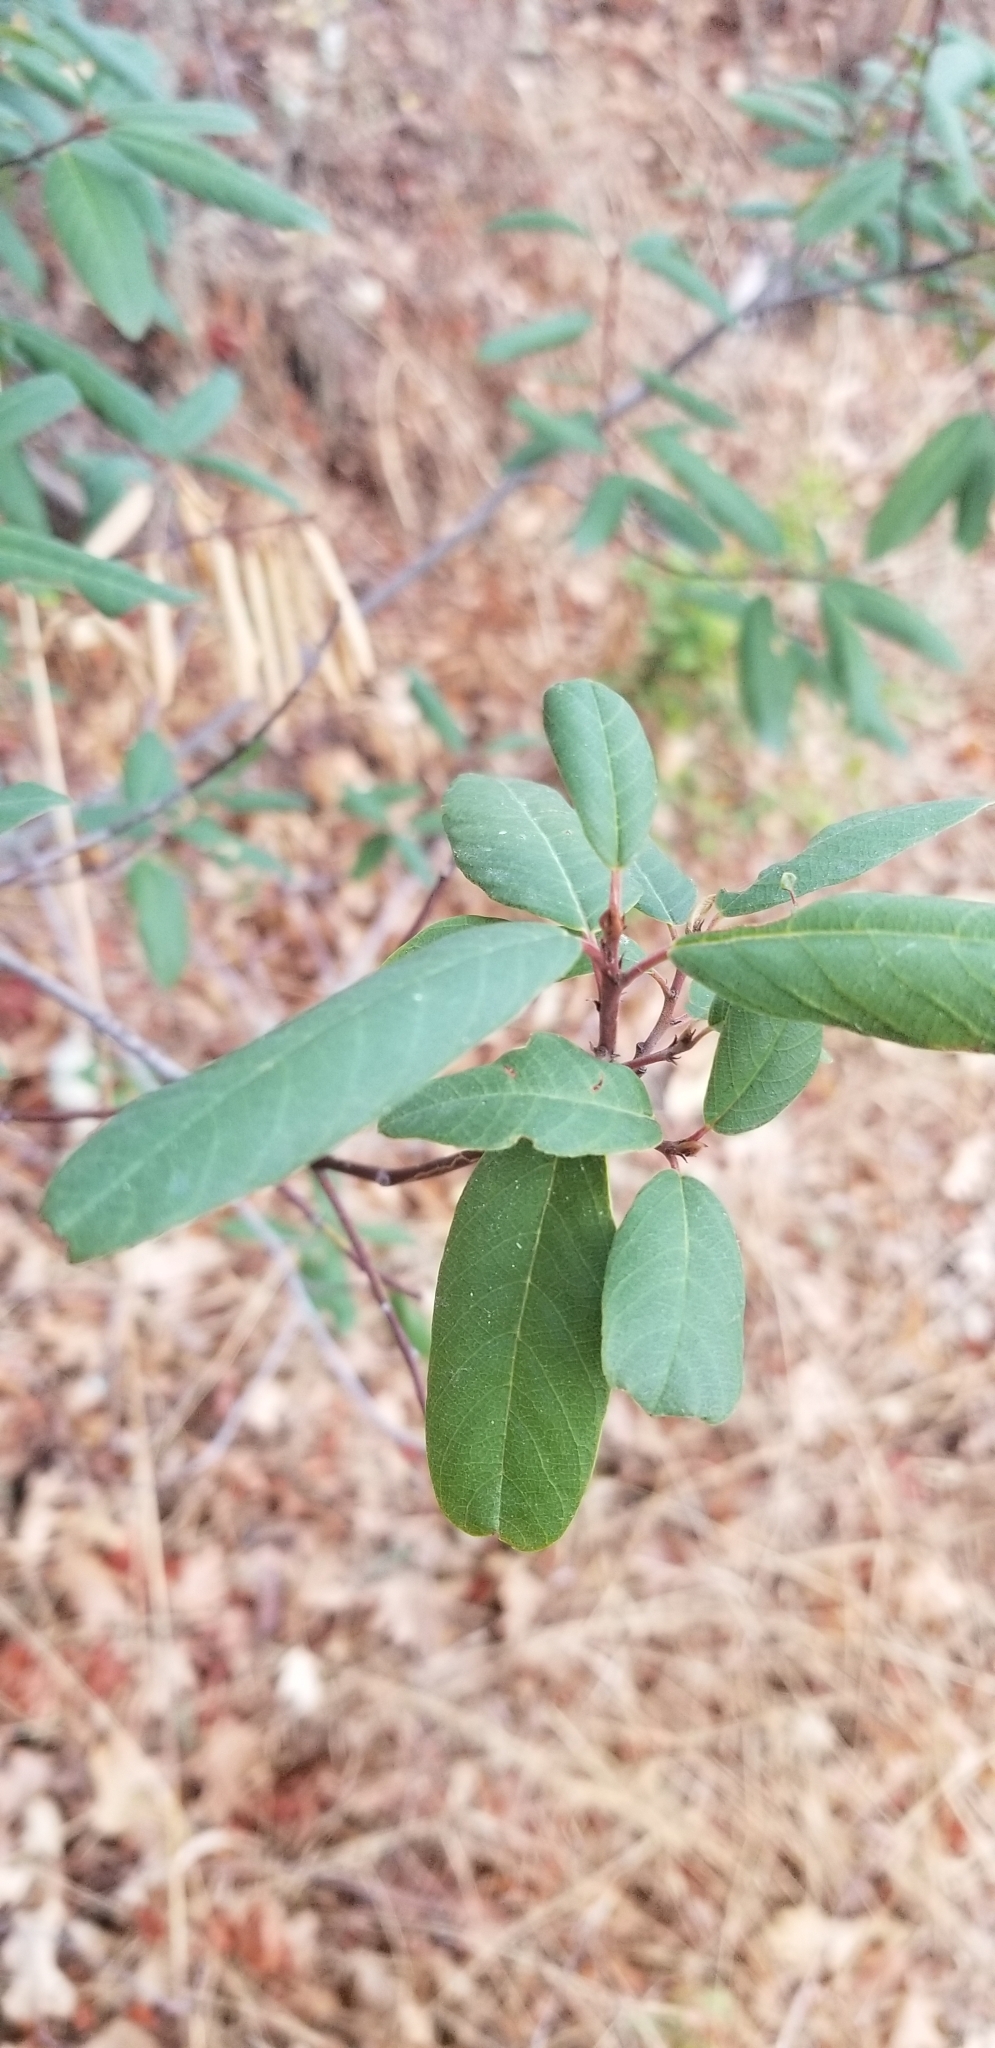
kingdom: Plantae
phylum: Tracheophyta
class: Magnoliopsida
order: Rosales
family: Rhamnaceae
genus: Frangula
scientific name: Frangula californica
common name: California buckthorn
